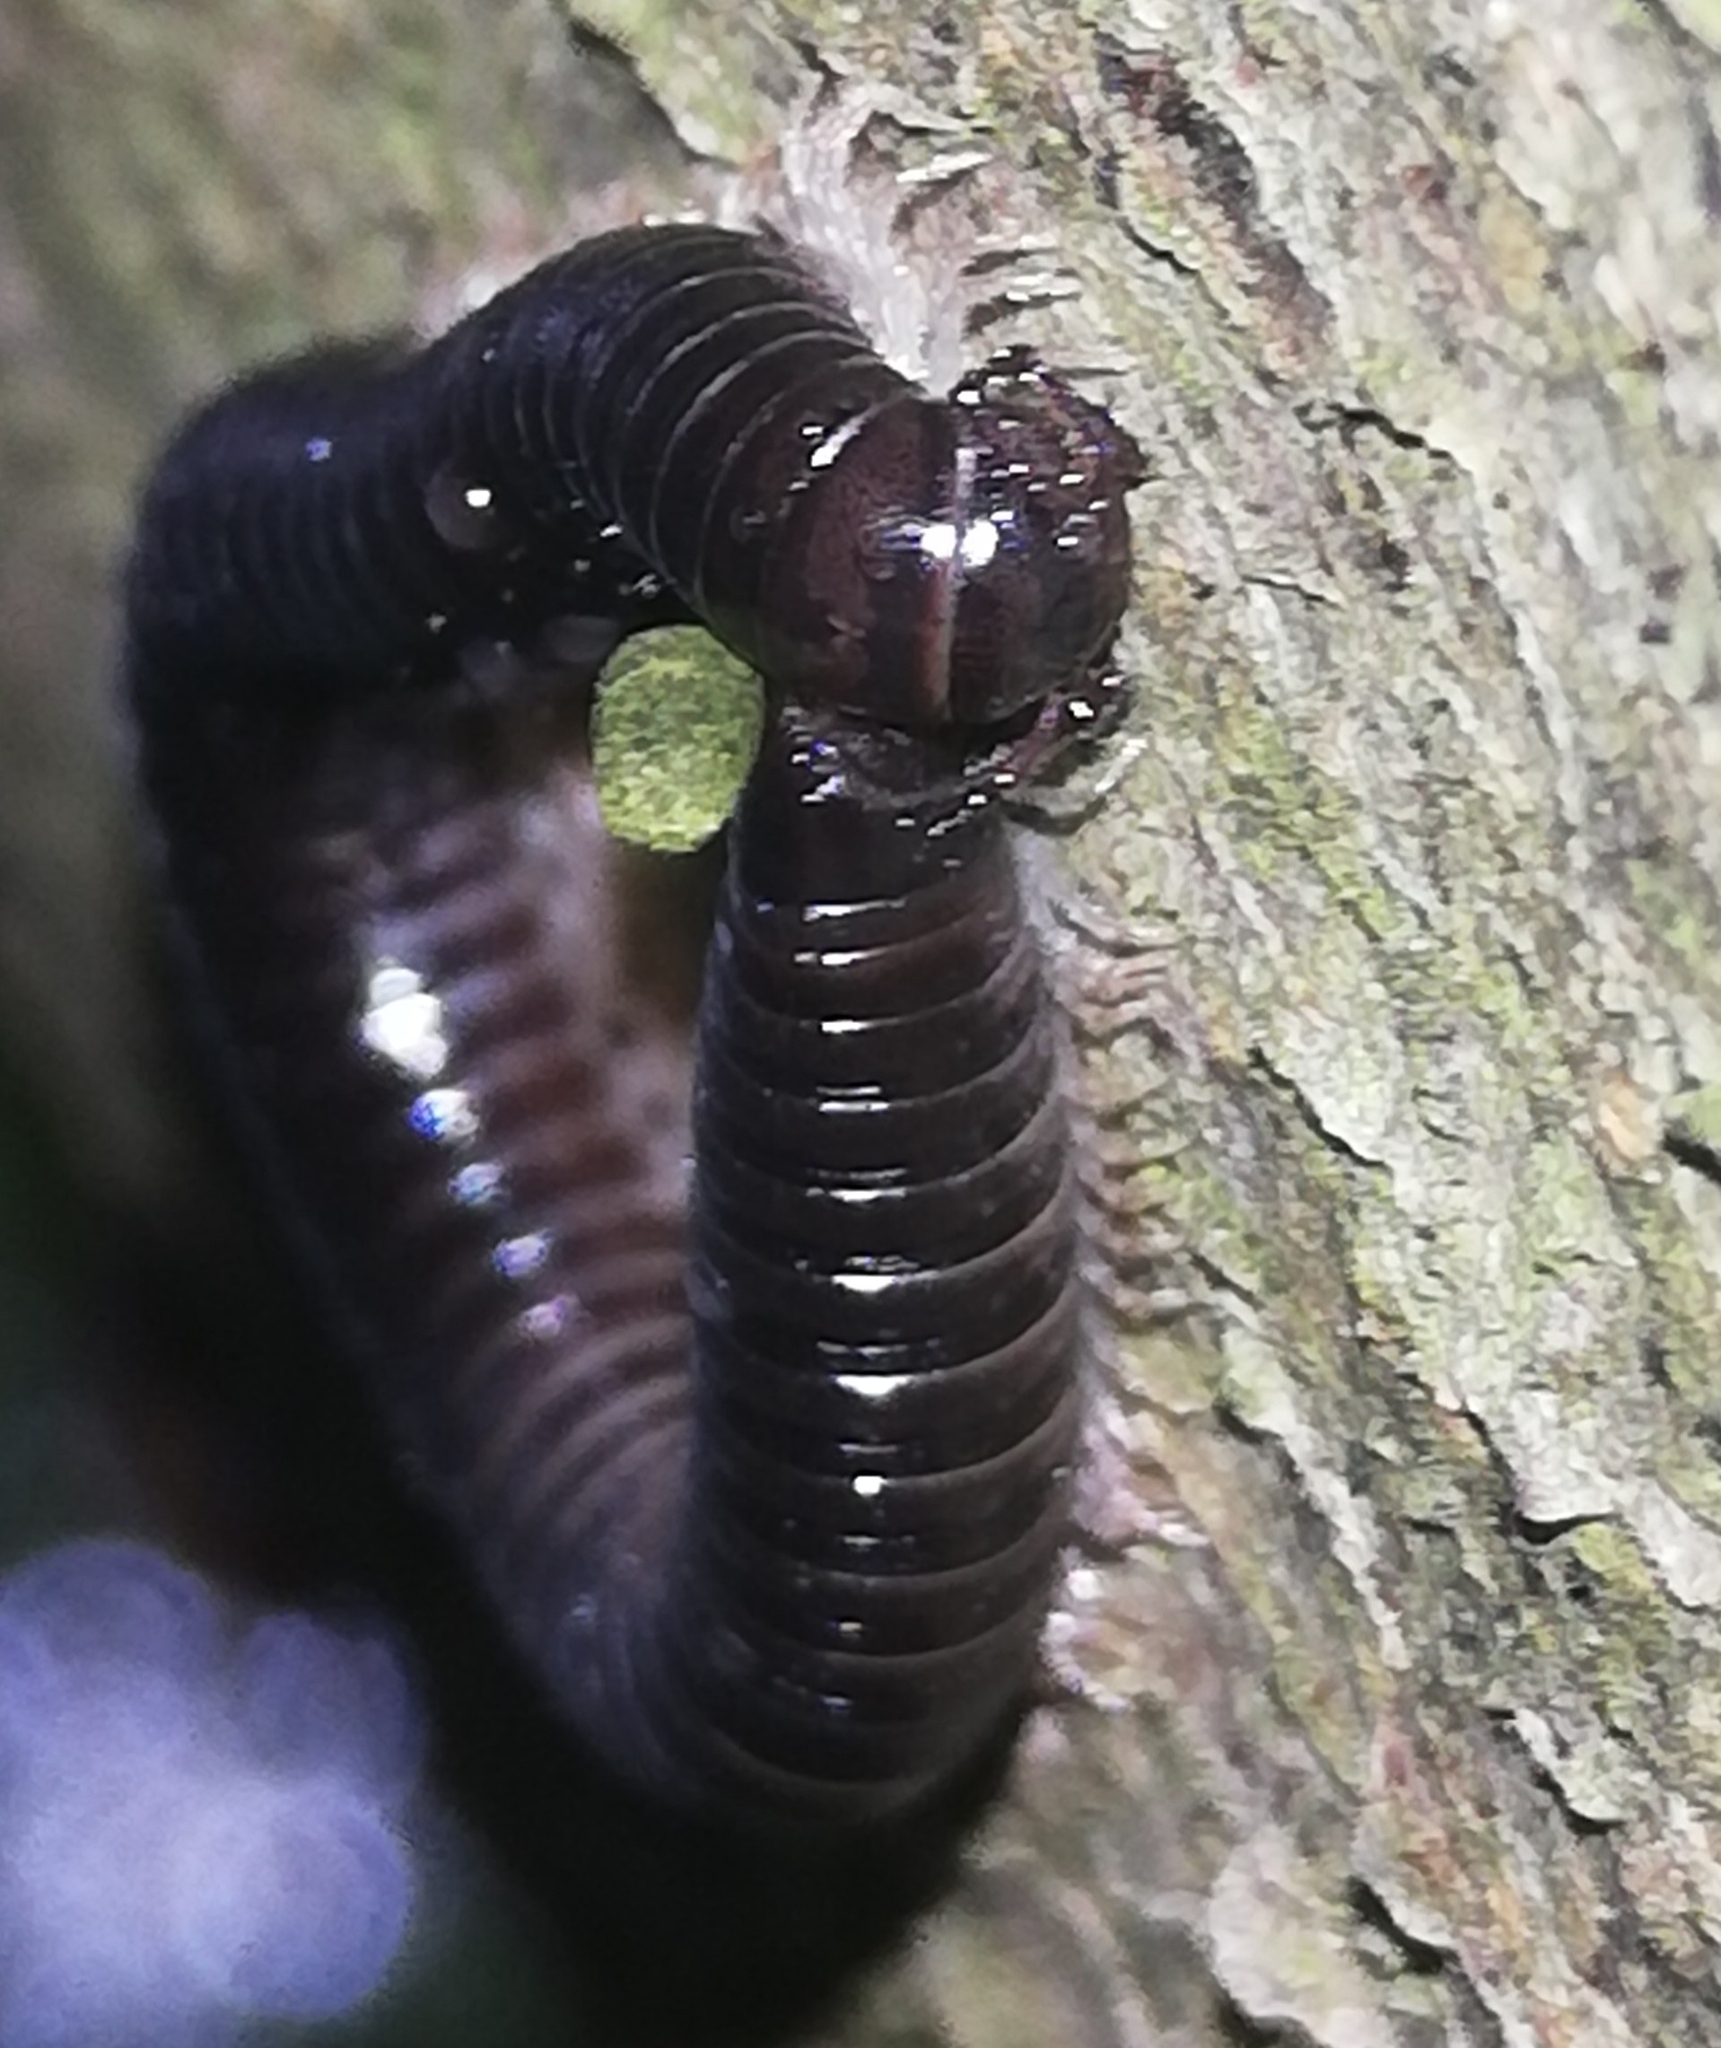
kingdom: Animalia
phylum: Arthropoda
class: Diplopoda
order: Julida
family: Julidae
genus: Tachypodoiulus
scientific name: Tachypodoiulus niger
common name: White-legged snake millipede
